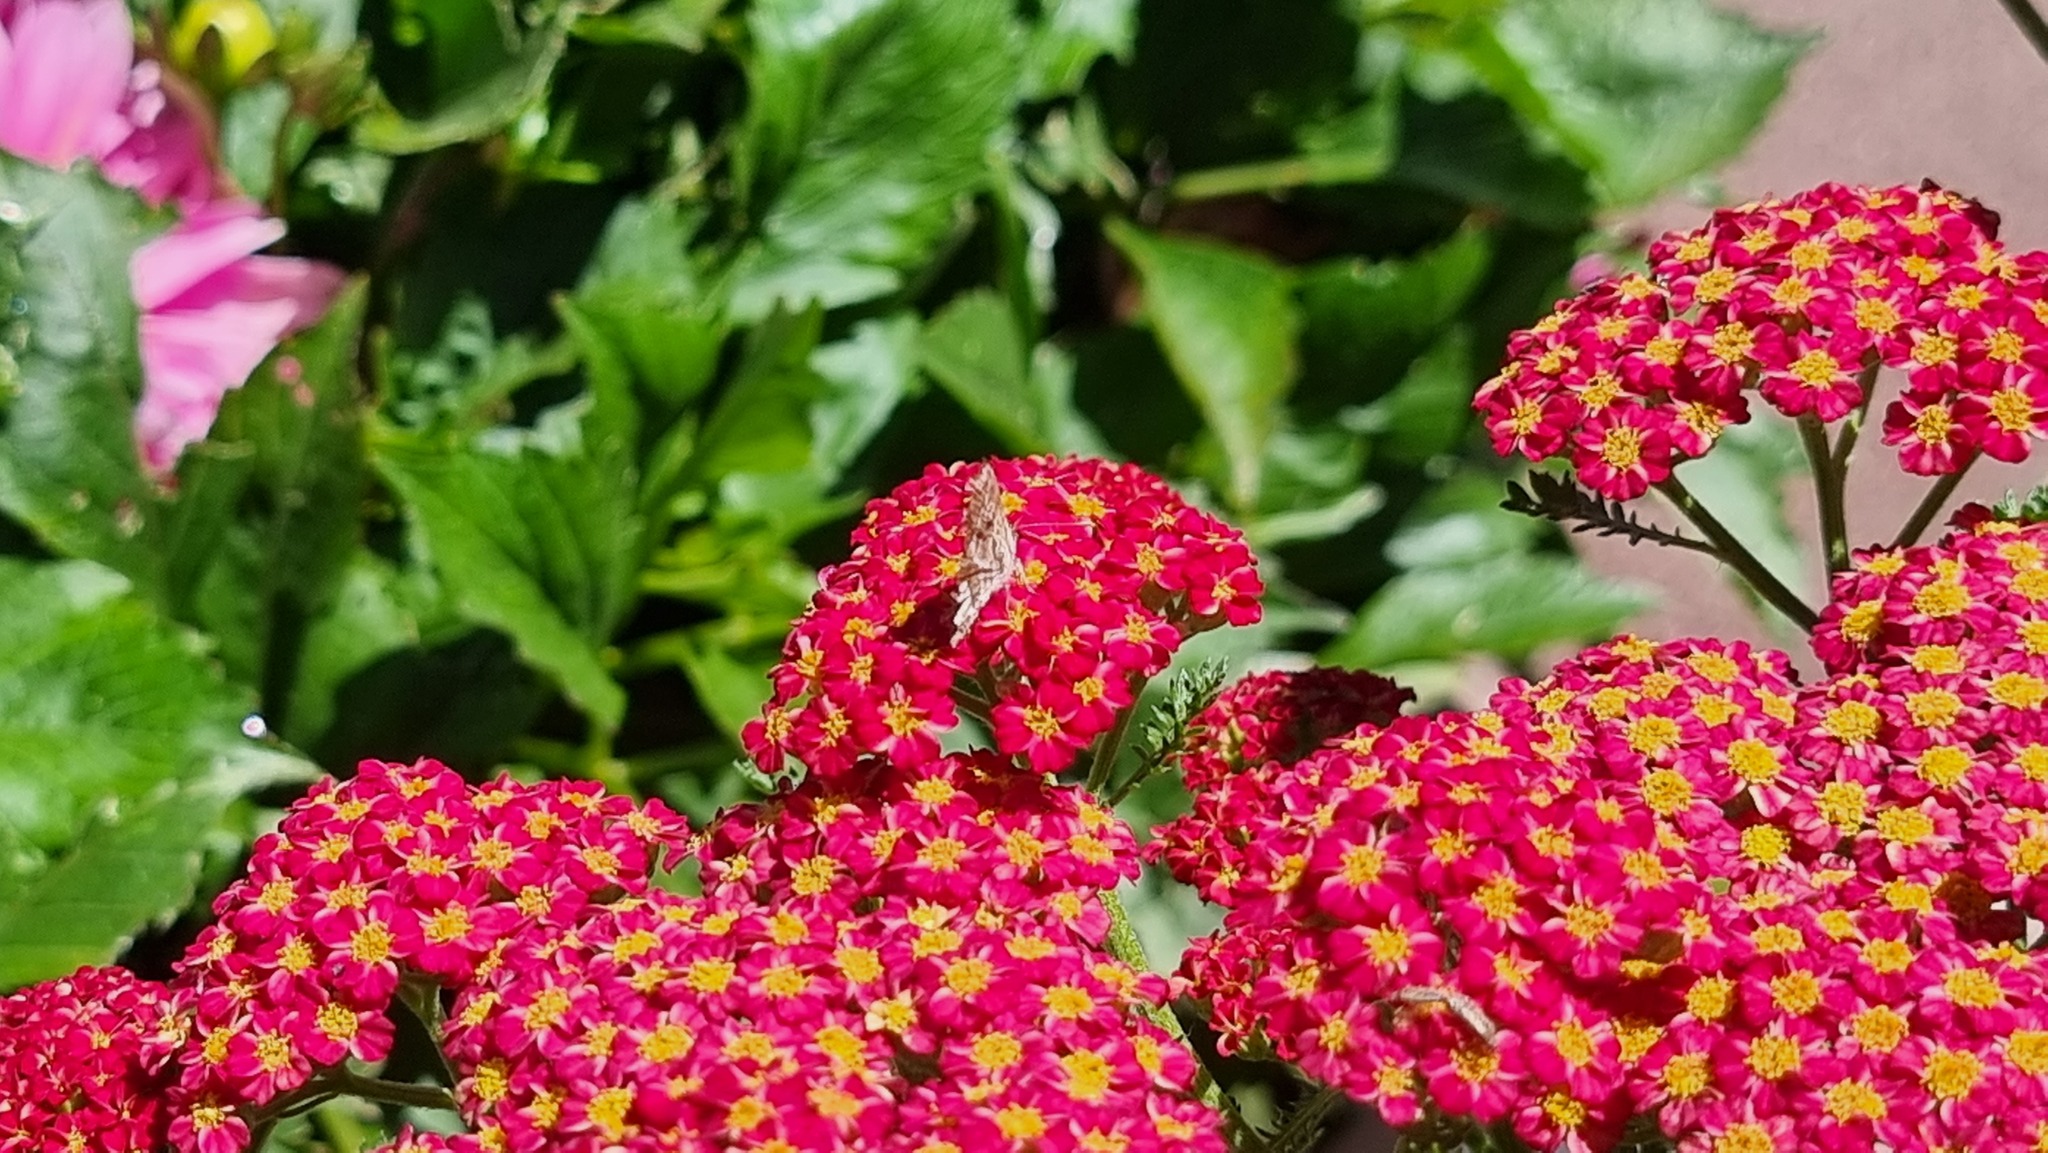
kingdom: Animalia
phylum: Arthropoda
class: Insecta
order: Lepidoptera
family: Lycaenidae
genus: Cacyreus
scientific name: Cacyreus marshalli
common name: Geranium bronze
